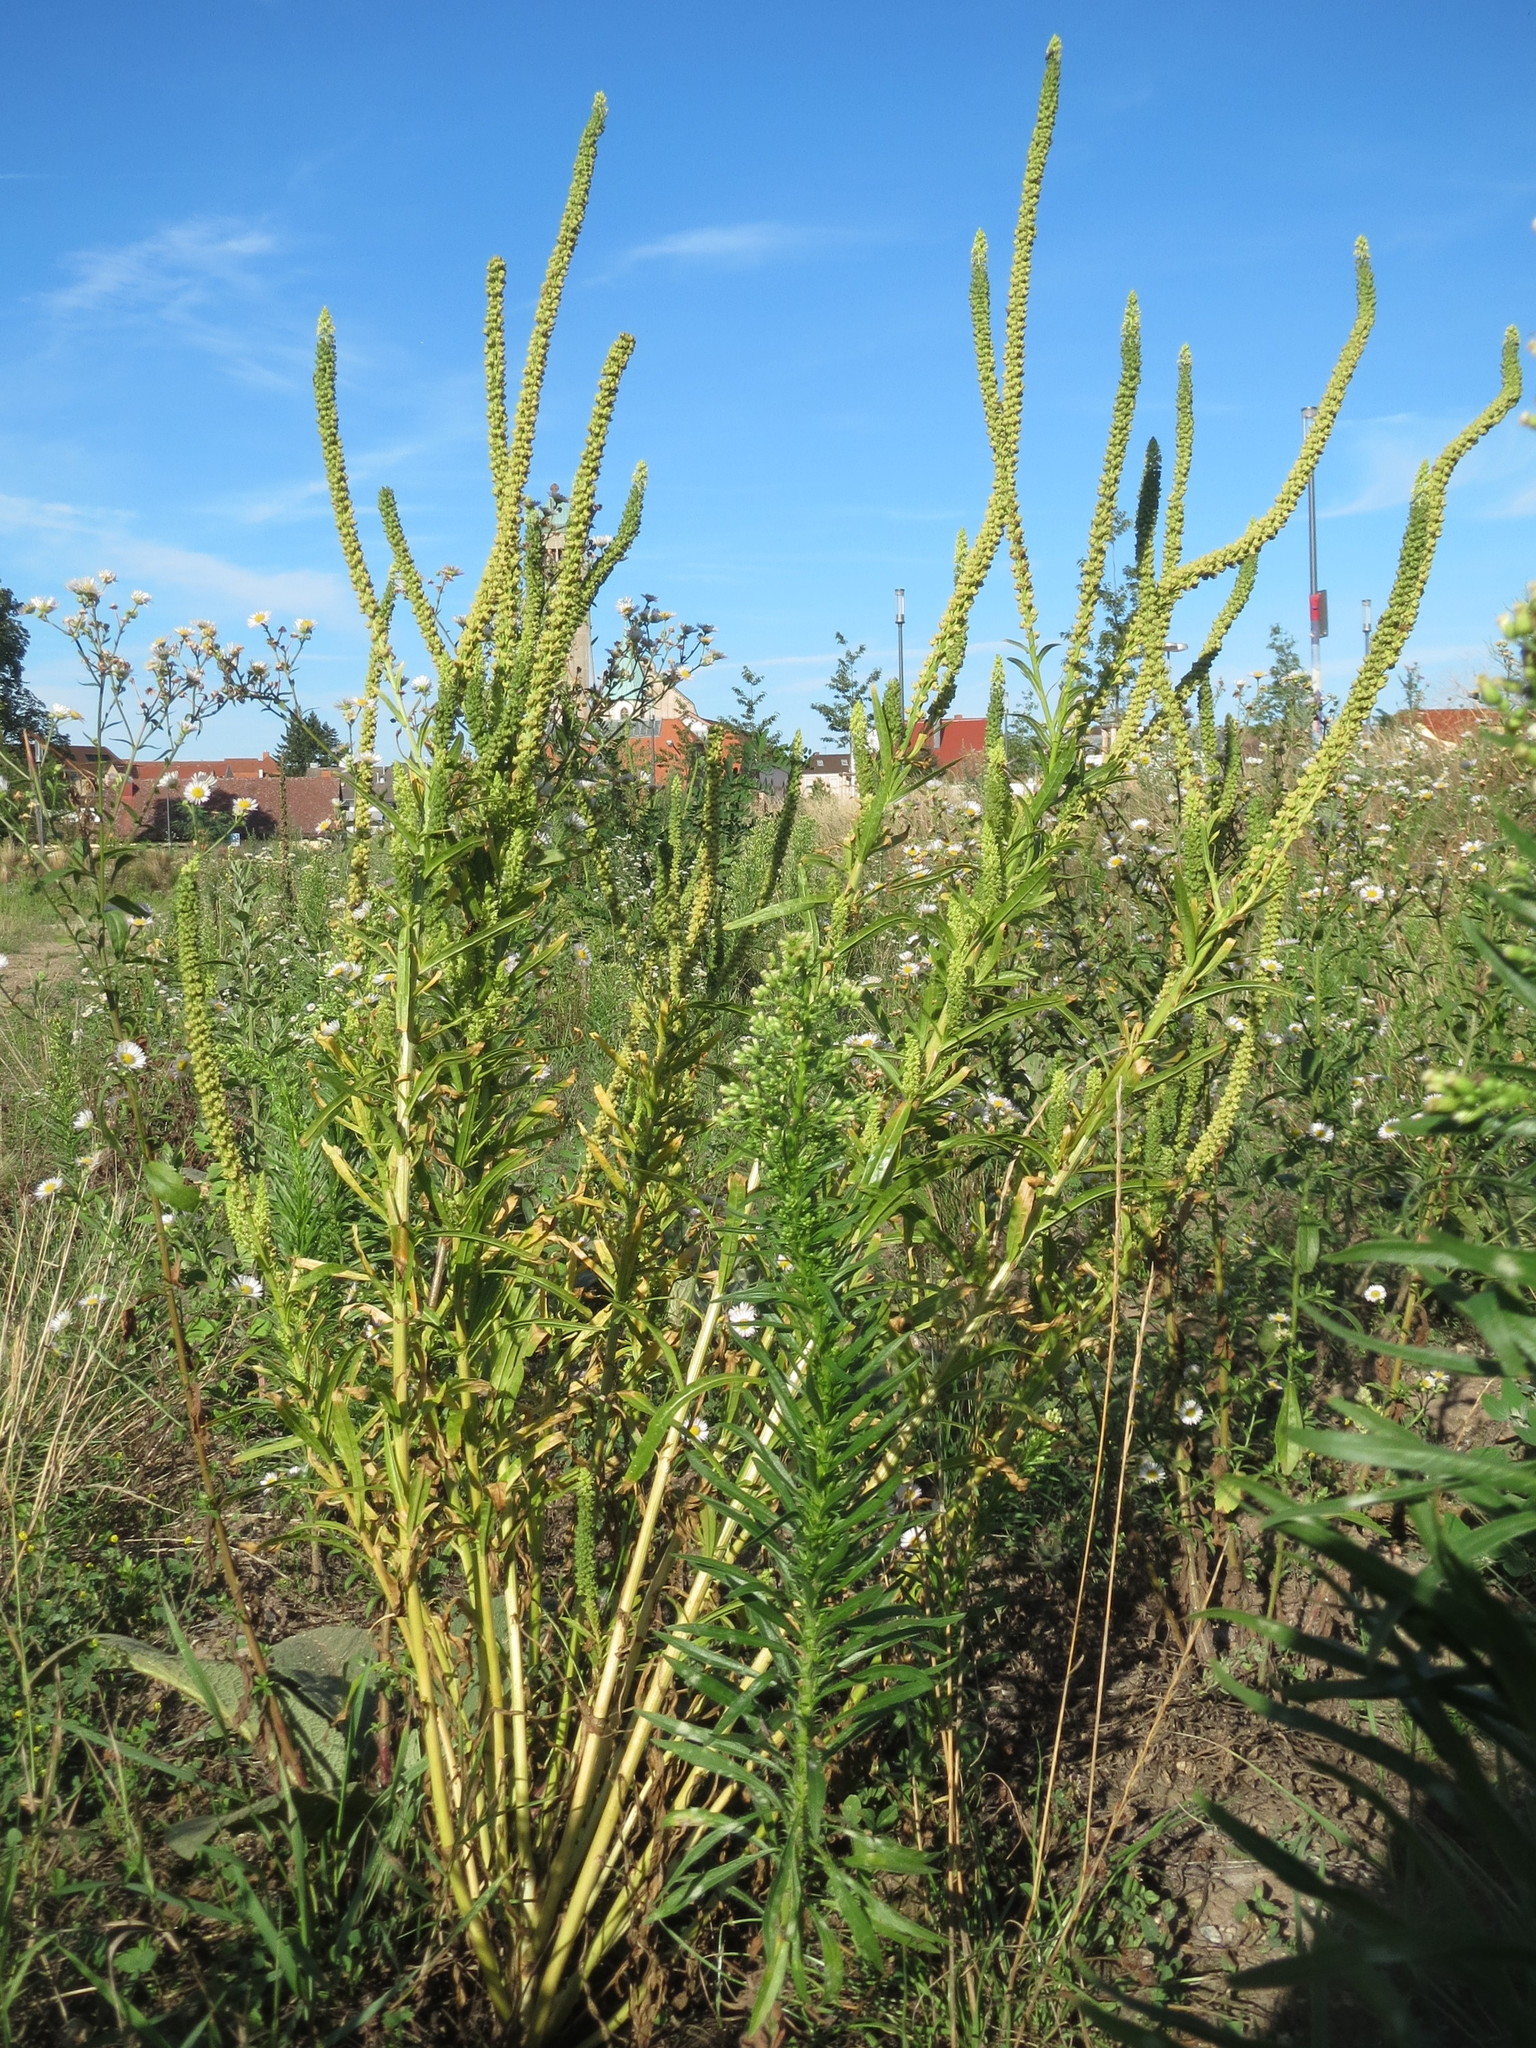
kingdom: Plantae
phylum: Tracheophyta
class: Magnoliopsida
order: Brassicales
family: Resedaceae
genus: Reseda
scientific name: Reseda luteola
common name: Weld
